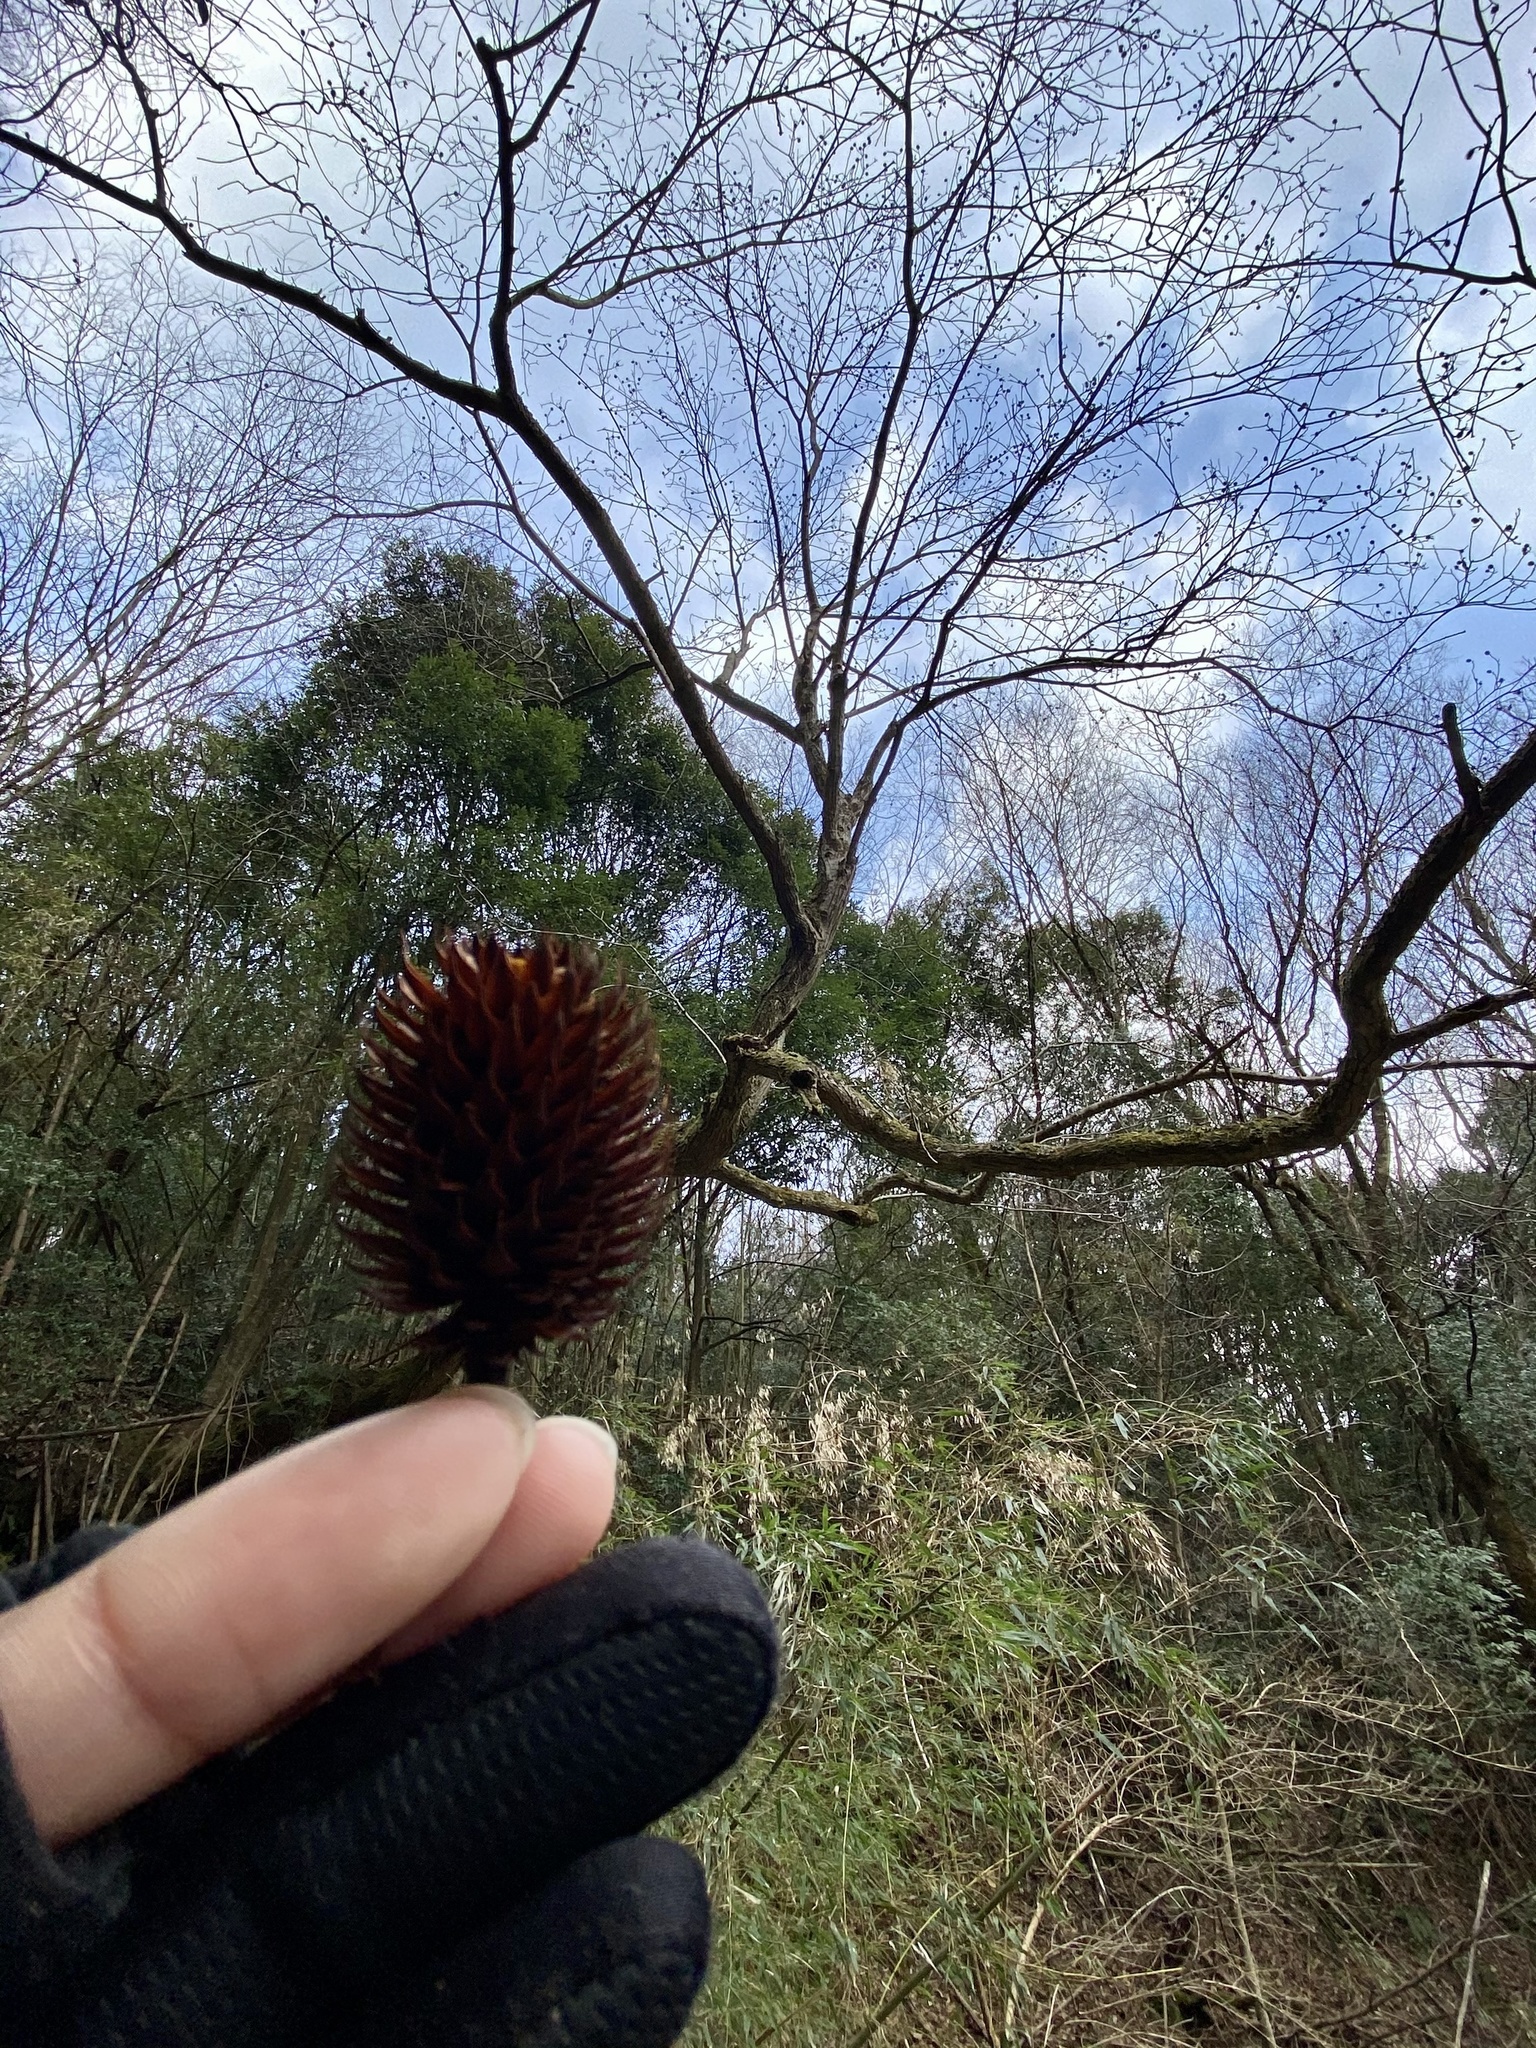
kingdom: Plantae
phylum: Tracheophyta
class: Magnoliopsida
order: Fagales
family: Juglandaceae
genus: Platycarya
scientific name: Platycarya strobilacea
